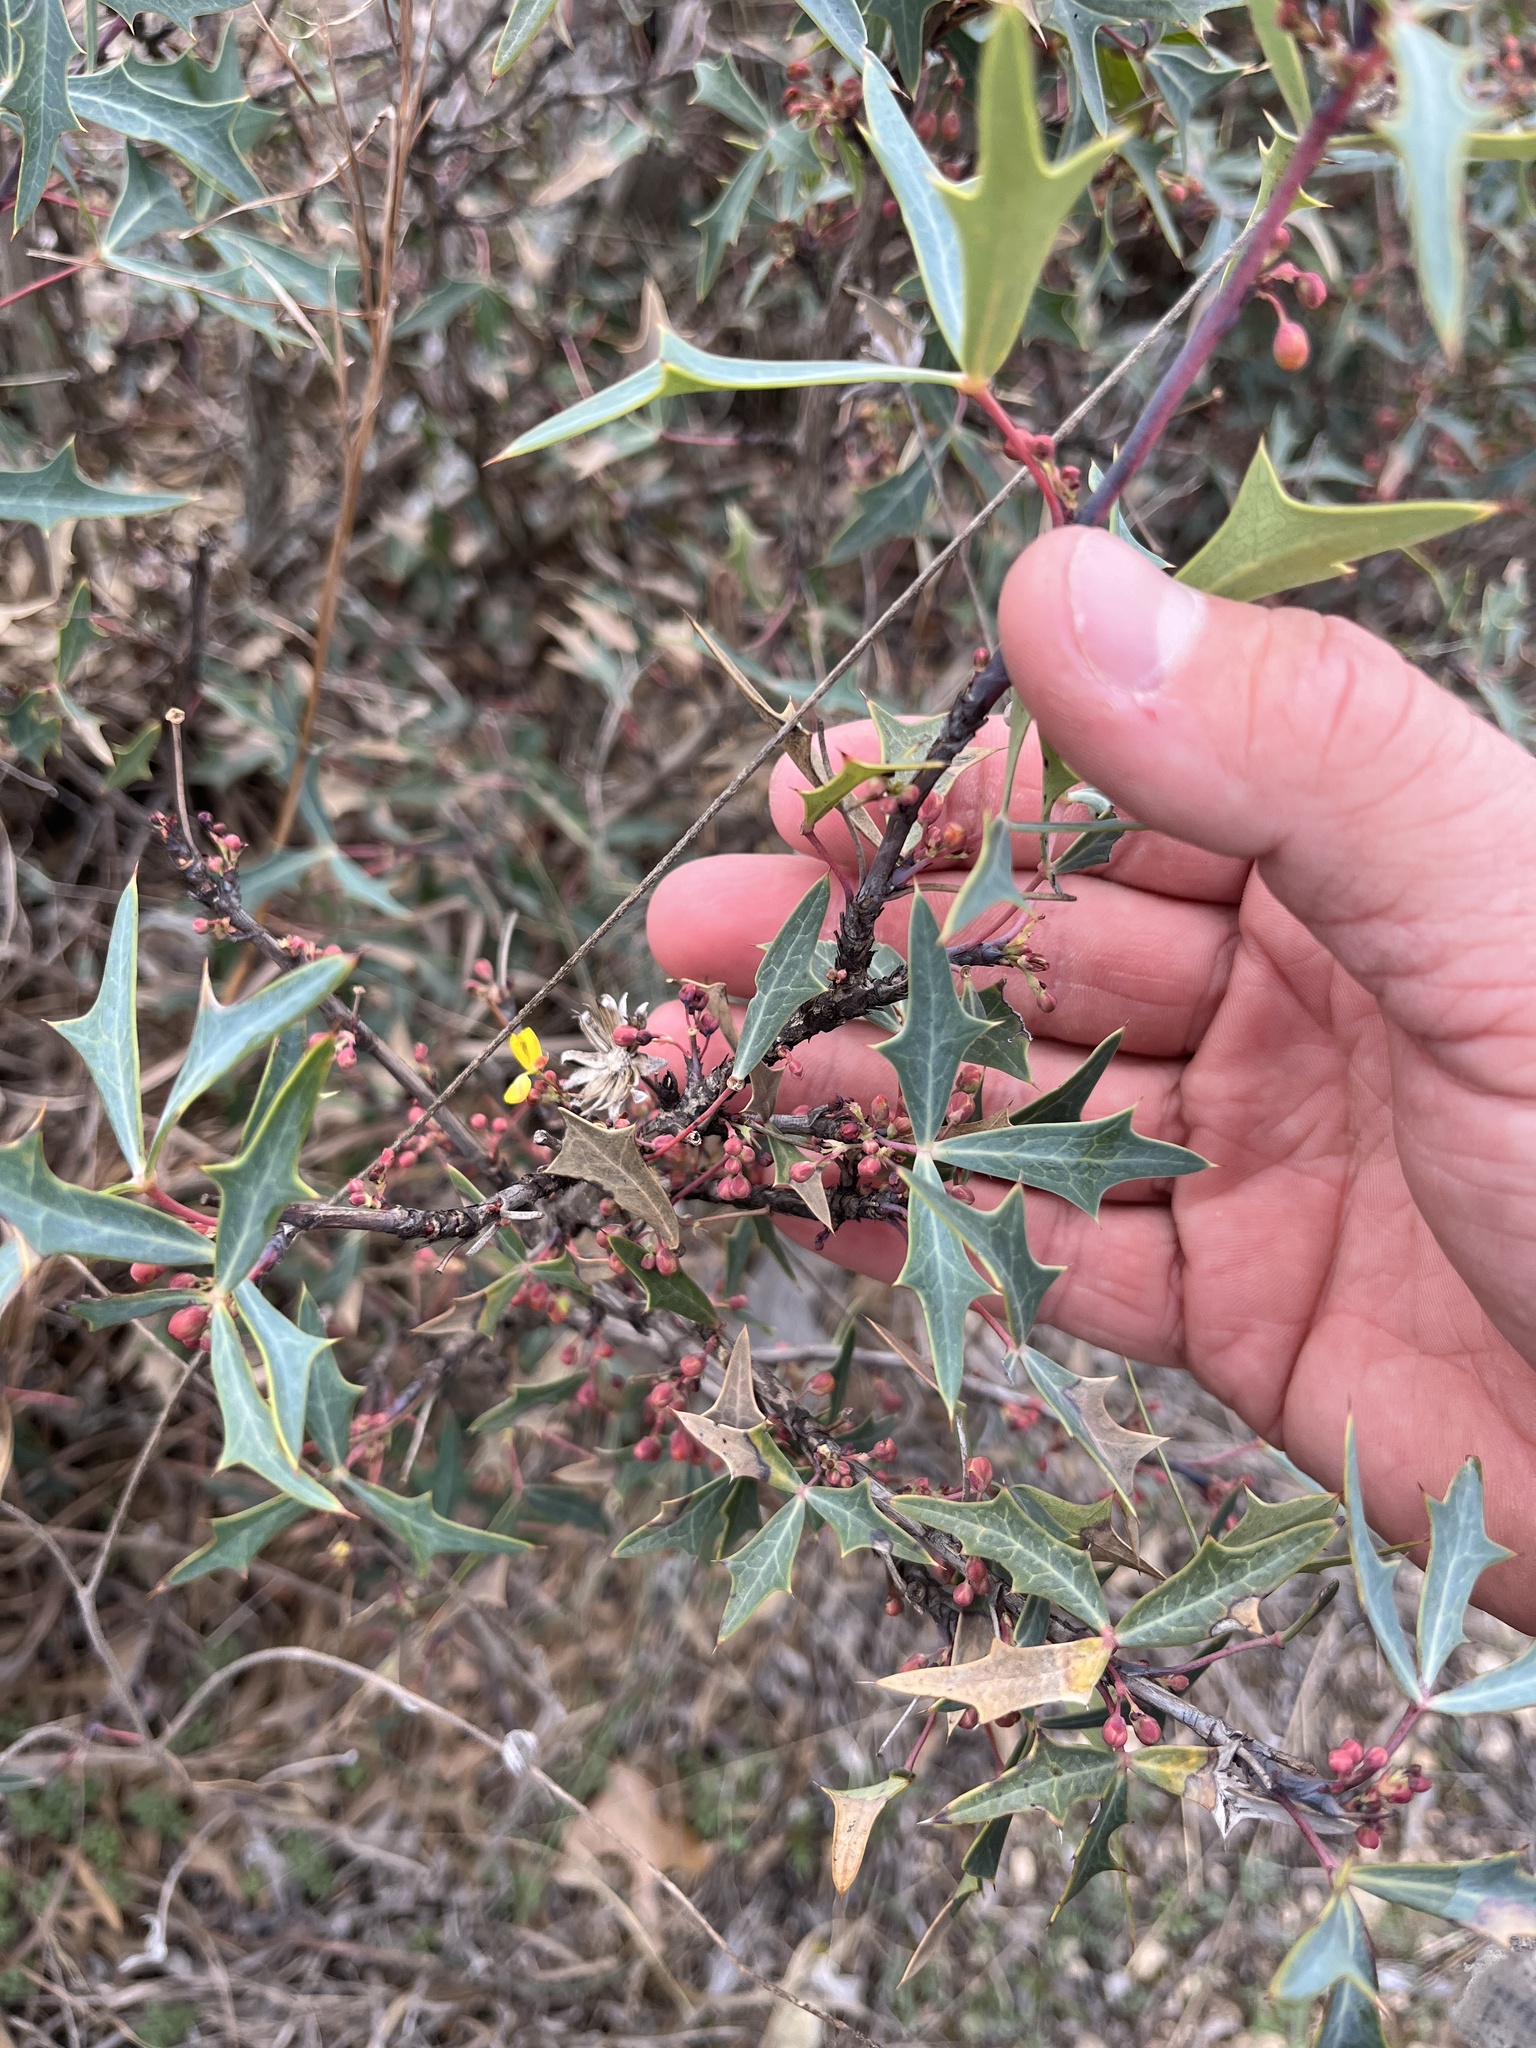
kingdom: Plantae
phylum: Tracheophyta
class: Magnoliopsida
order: Ranunculales
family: Berberidaceae
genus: Alloberberis
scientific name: Alloberberis trifoliolata
